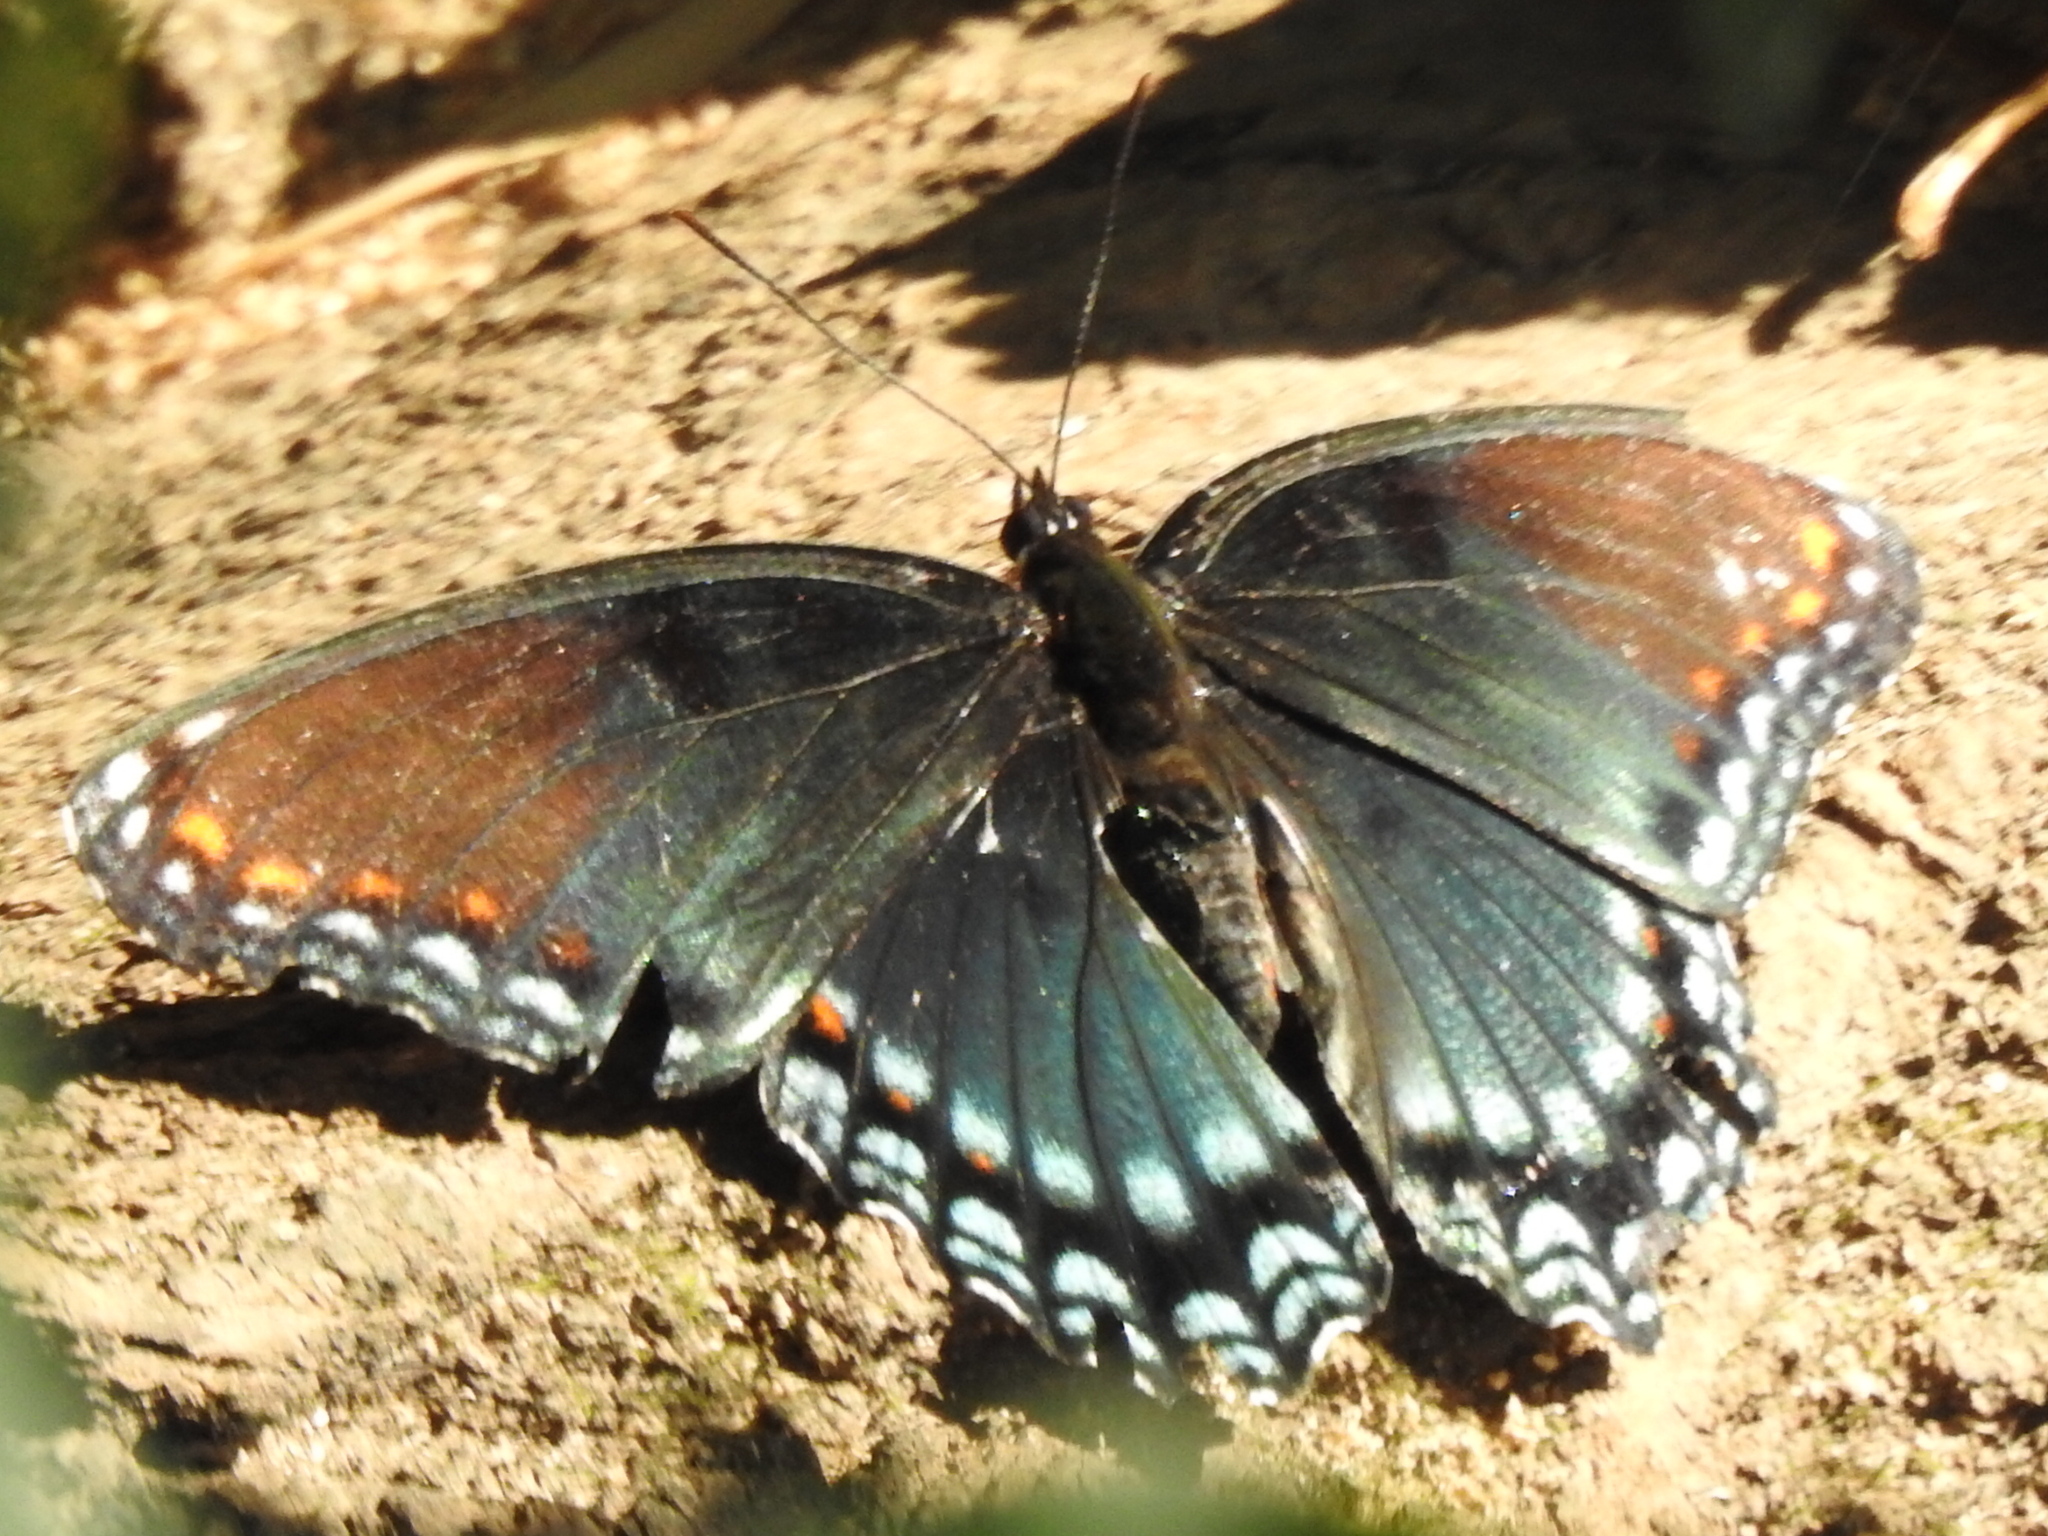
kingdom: Animalia
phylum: Arthropoda
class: Insecta
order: Lepidoptera
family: Nymphalidae
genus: Limenitis
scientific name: Limenitis astyanax
